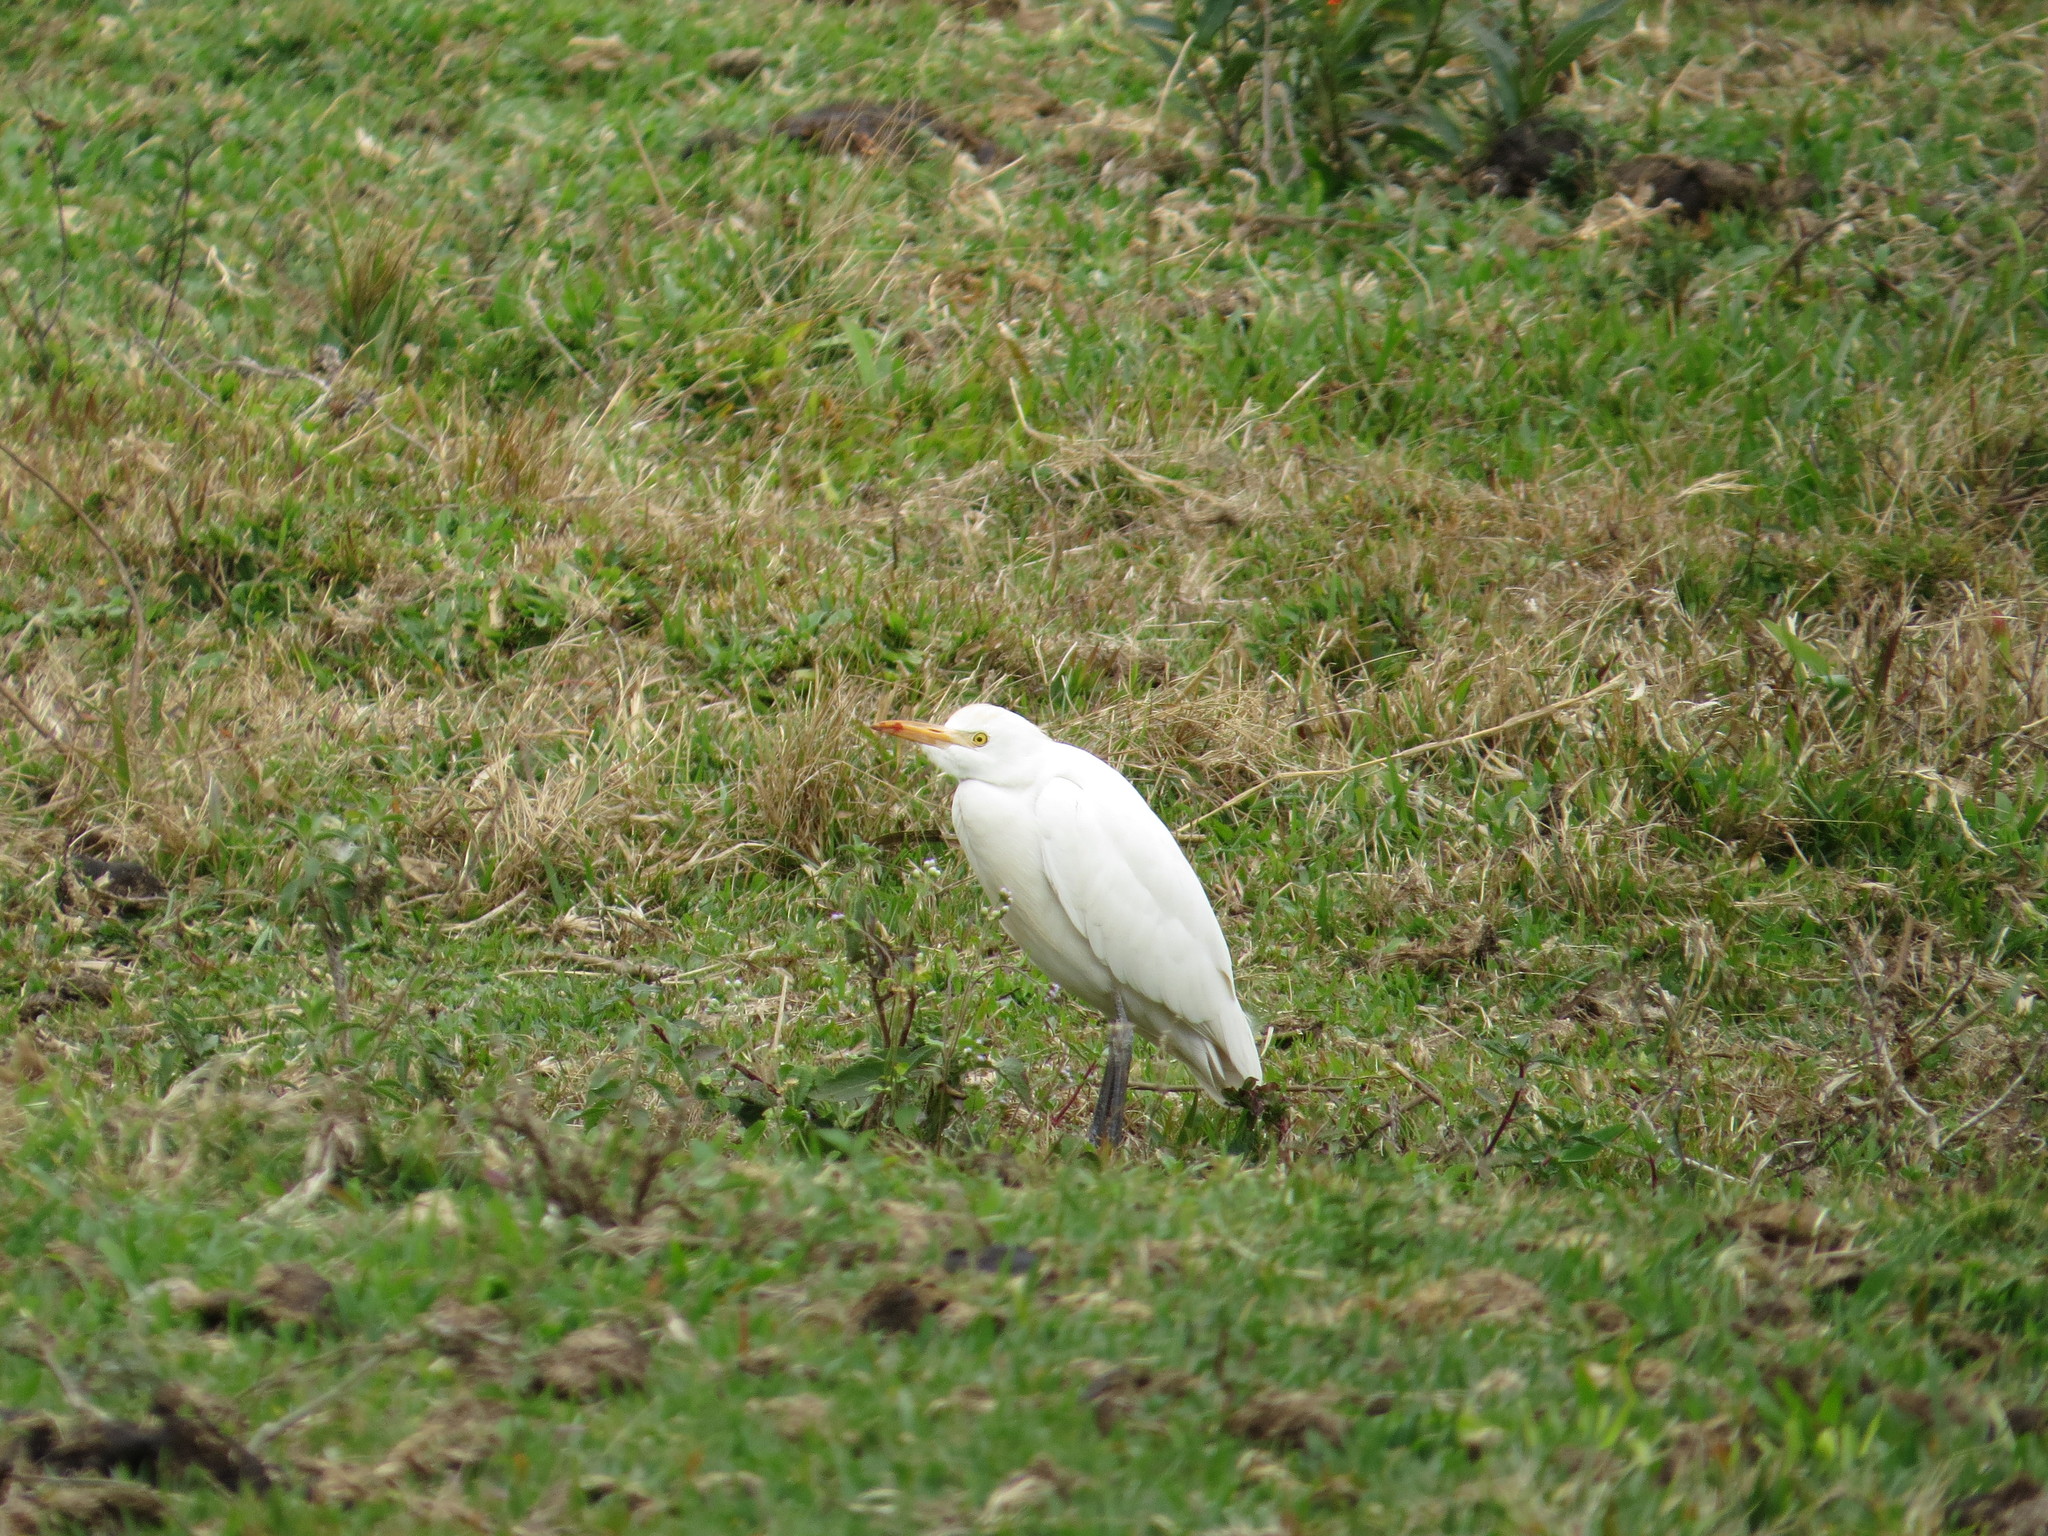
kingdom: Animalia
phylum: Chordata
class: Aves
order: Pelecaniformes
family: Ardeidae
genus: Bubulcus
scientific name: Bubulcus ibis
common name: Cattle egret
